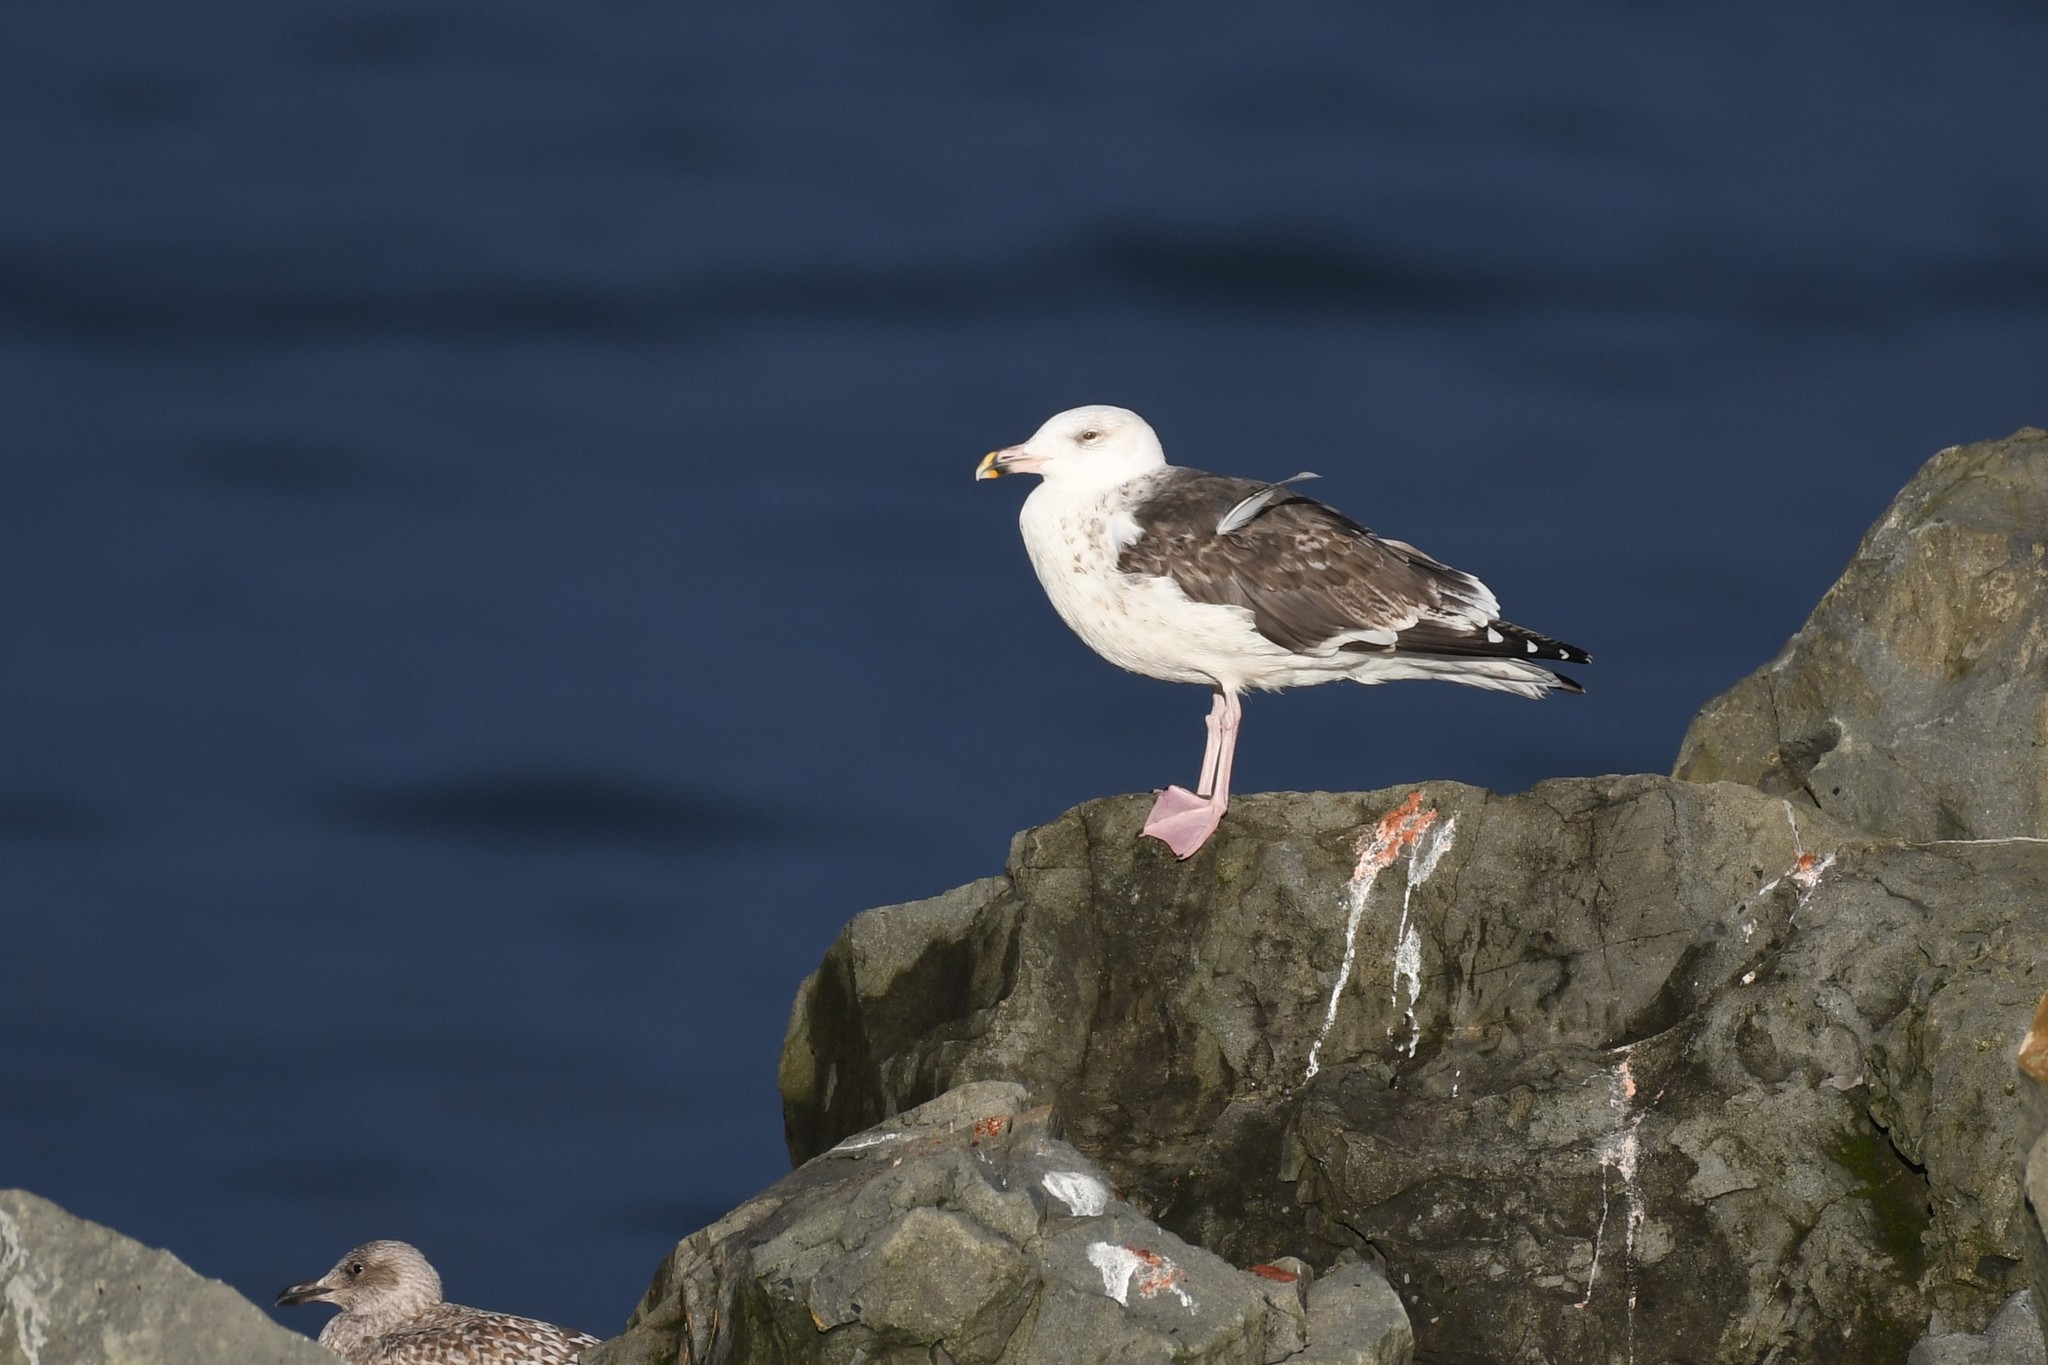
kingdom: Animalia
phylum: Chordata
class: Aves
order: Charadriiformes
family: Laridae
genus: Larus
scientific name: Larus marinus
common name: Great black-backed gull
